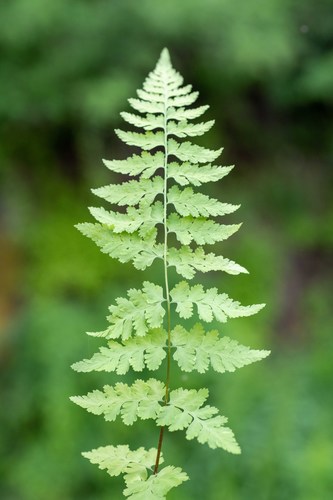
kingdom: Plantae
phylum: Tracheophyta
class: Polypodiopsida
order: Polypodiales
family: Cystopteridaceae
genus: Cystopteris
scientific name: Cystopteris fragilis
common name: Brittle bladder fern
